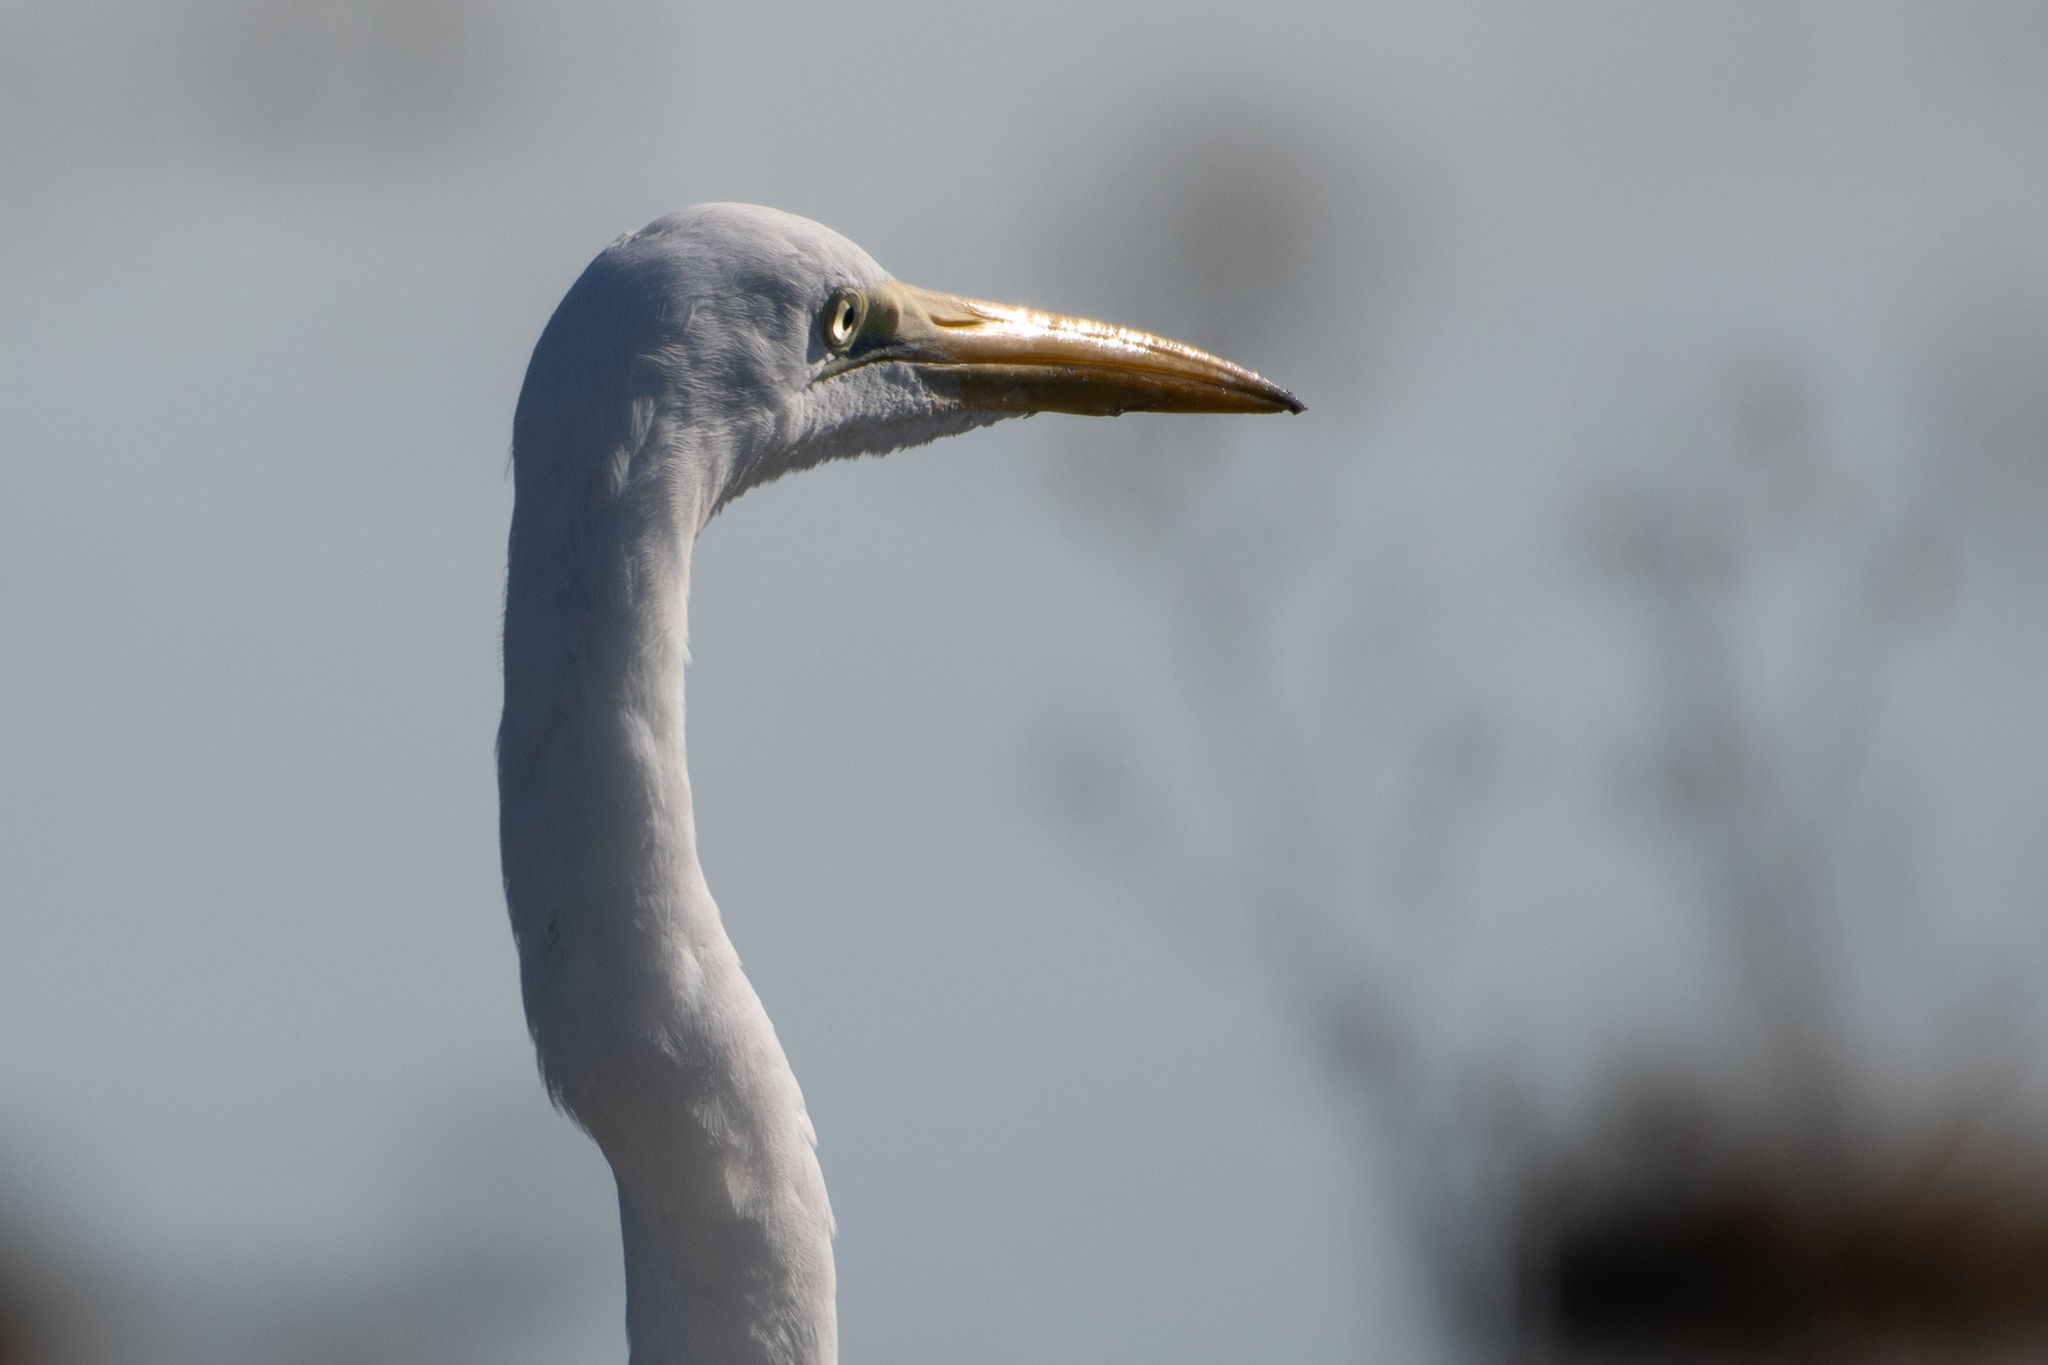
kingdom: Animalia
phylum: Chordata
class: Aves
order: Pelecaniformes
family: Ardeidae
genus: Ardea
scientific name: Ardea alba
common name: Great egret
